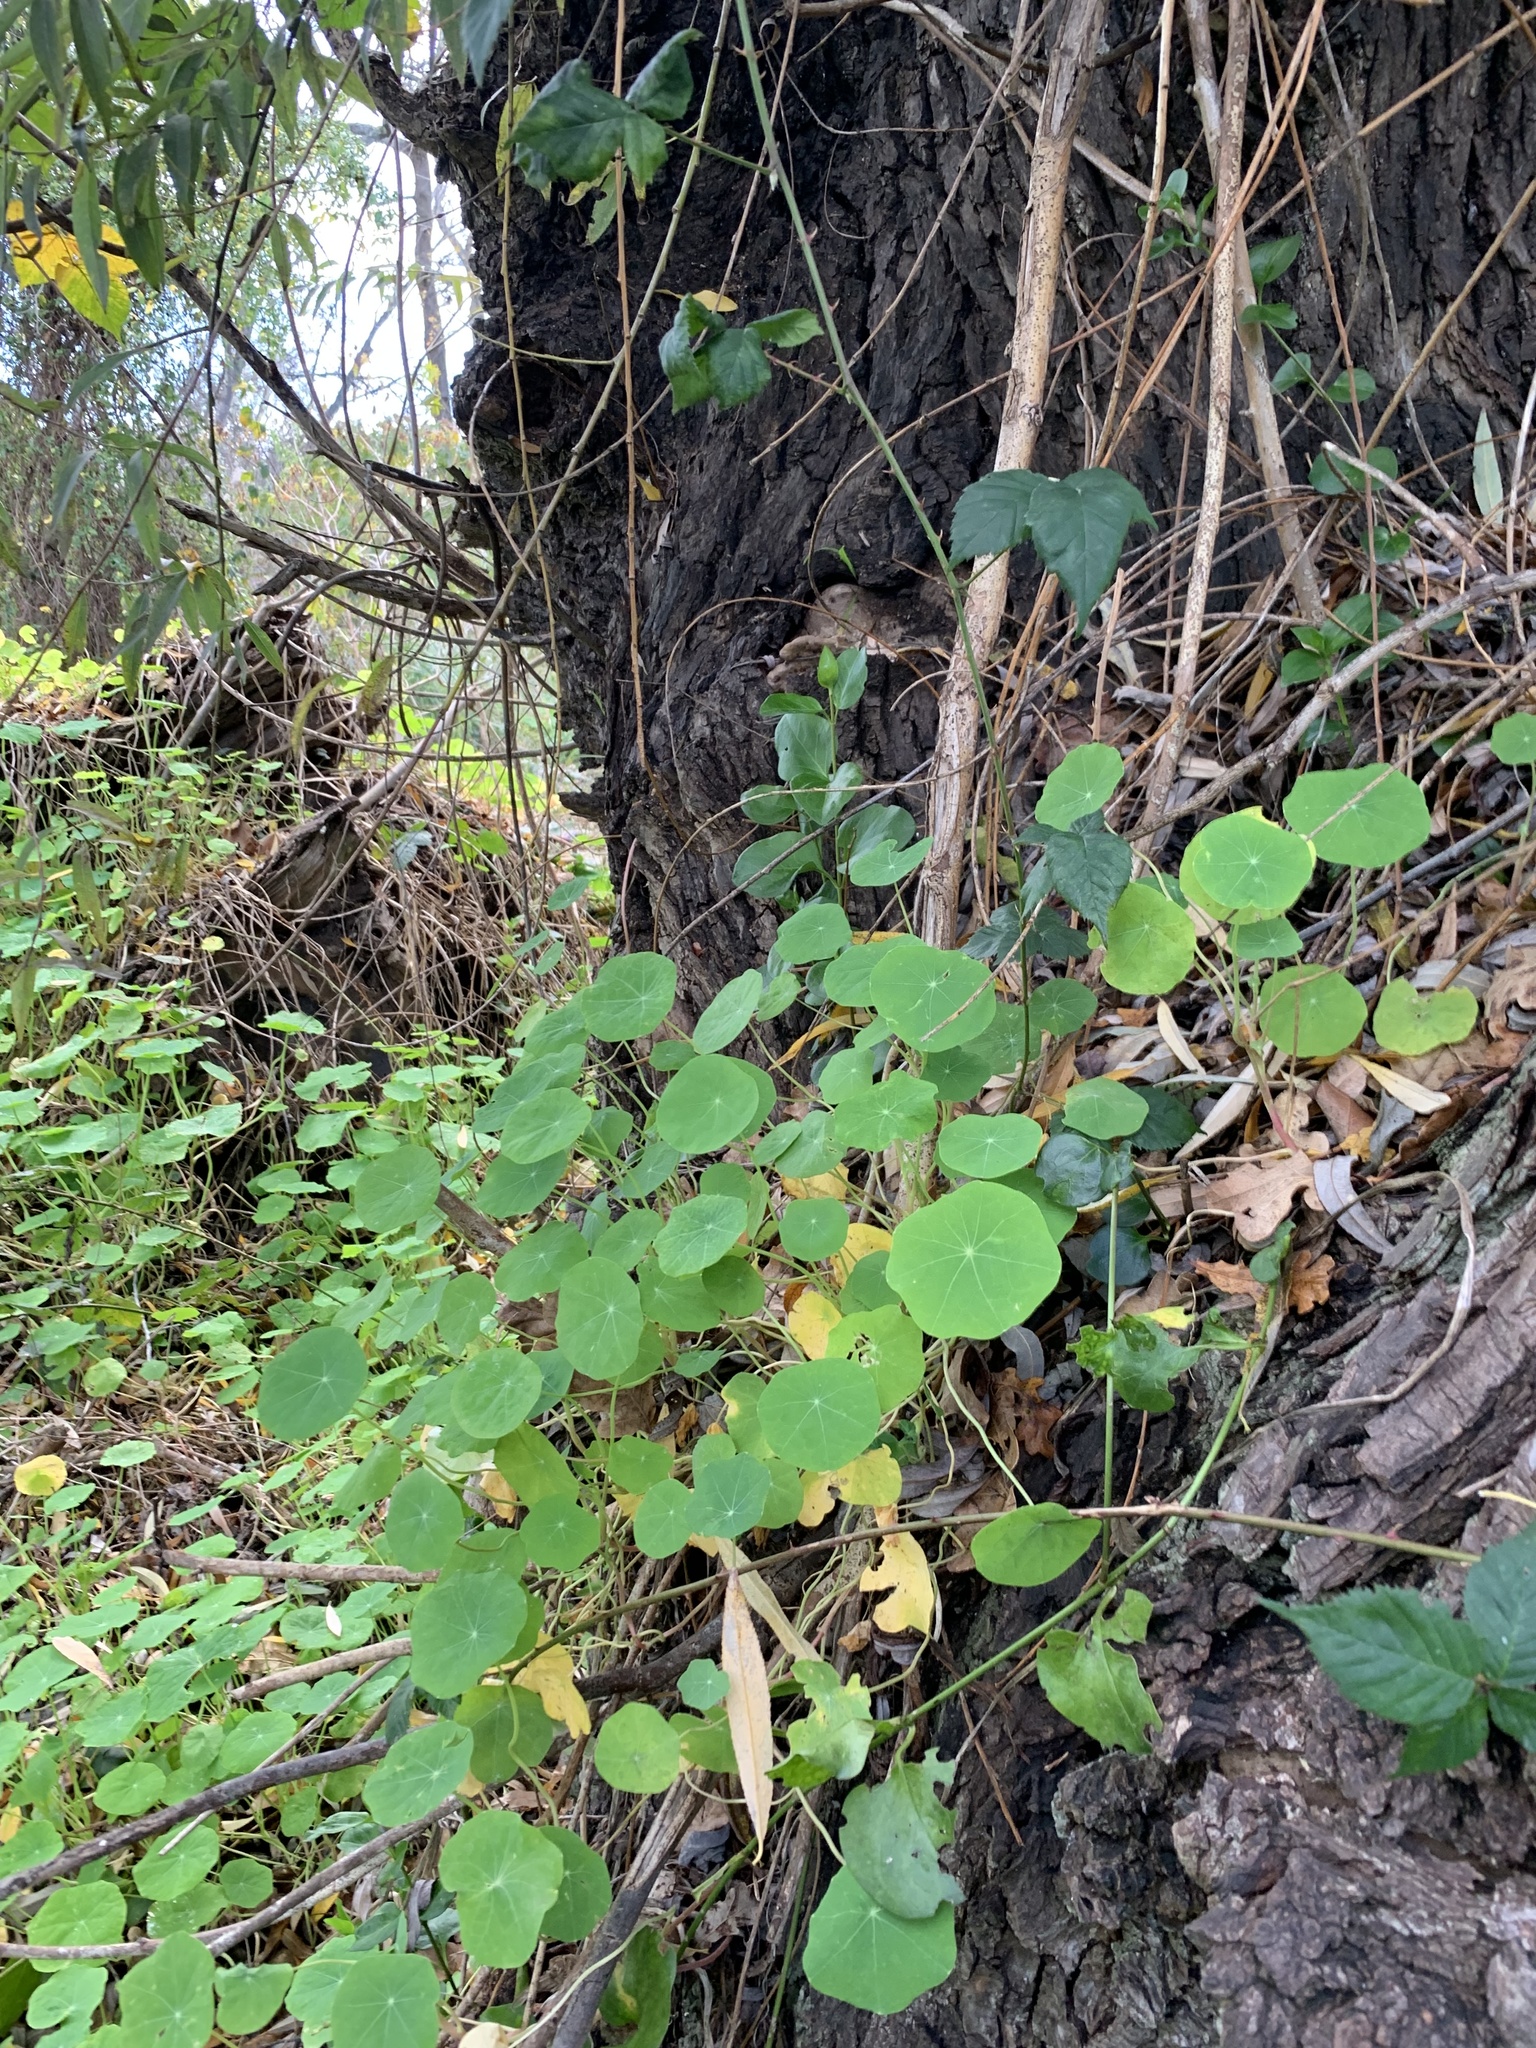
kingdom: Plantae
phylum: Tracheophyta
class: Magnoliopsida
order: Brassicales
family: Tropaeolaceae
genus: Tropaeolum
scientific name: Tropaeolum majus
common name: Nasturtium
